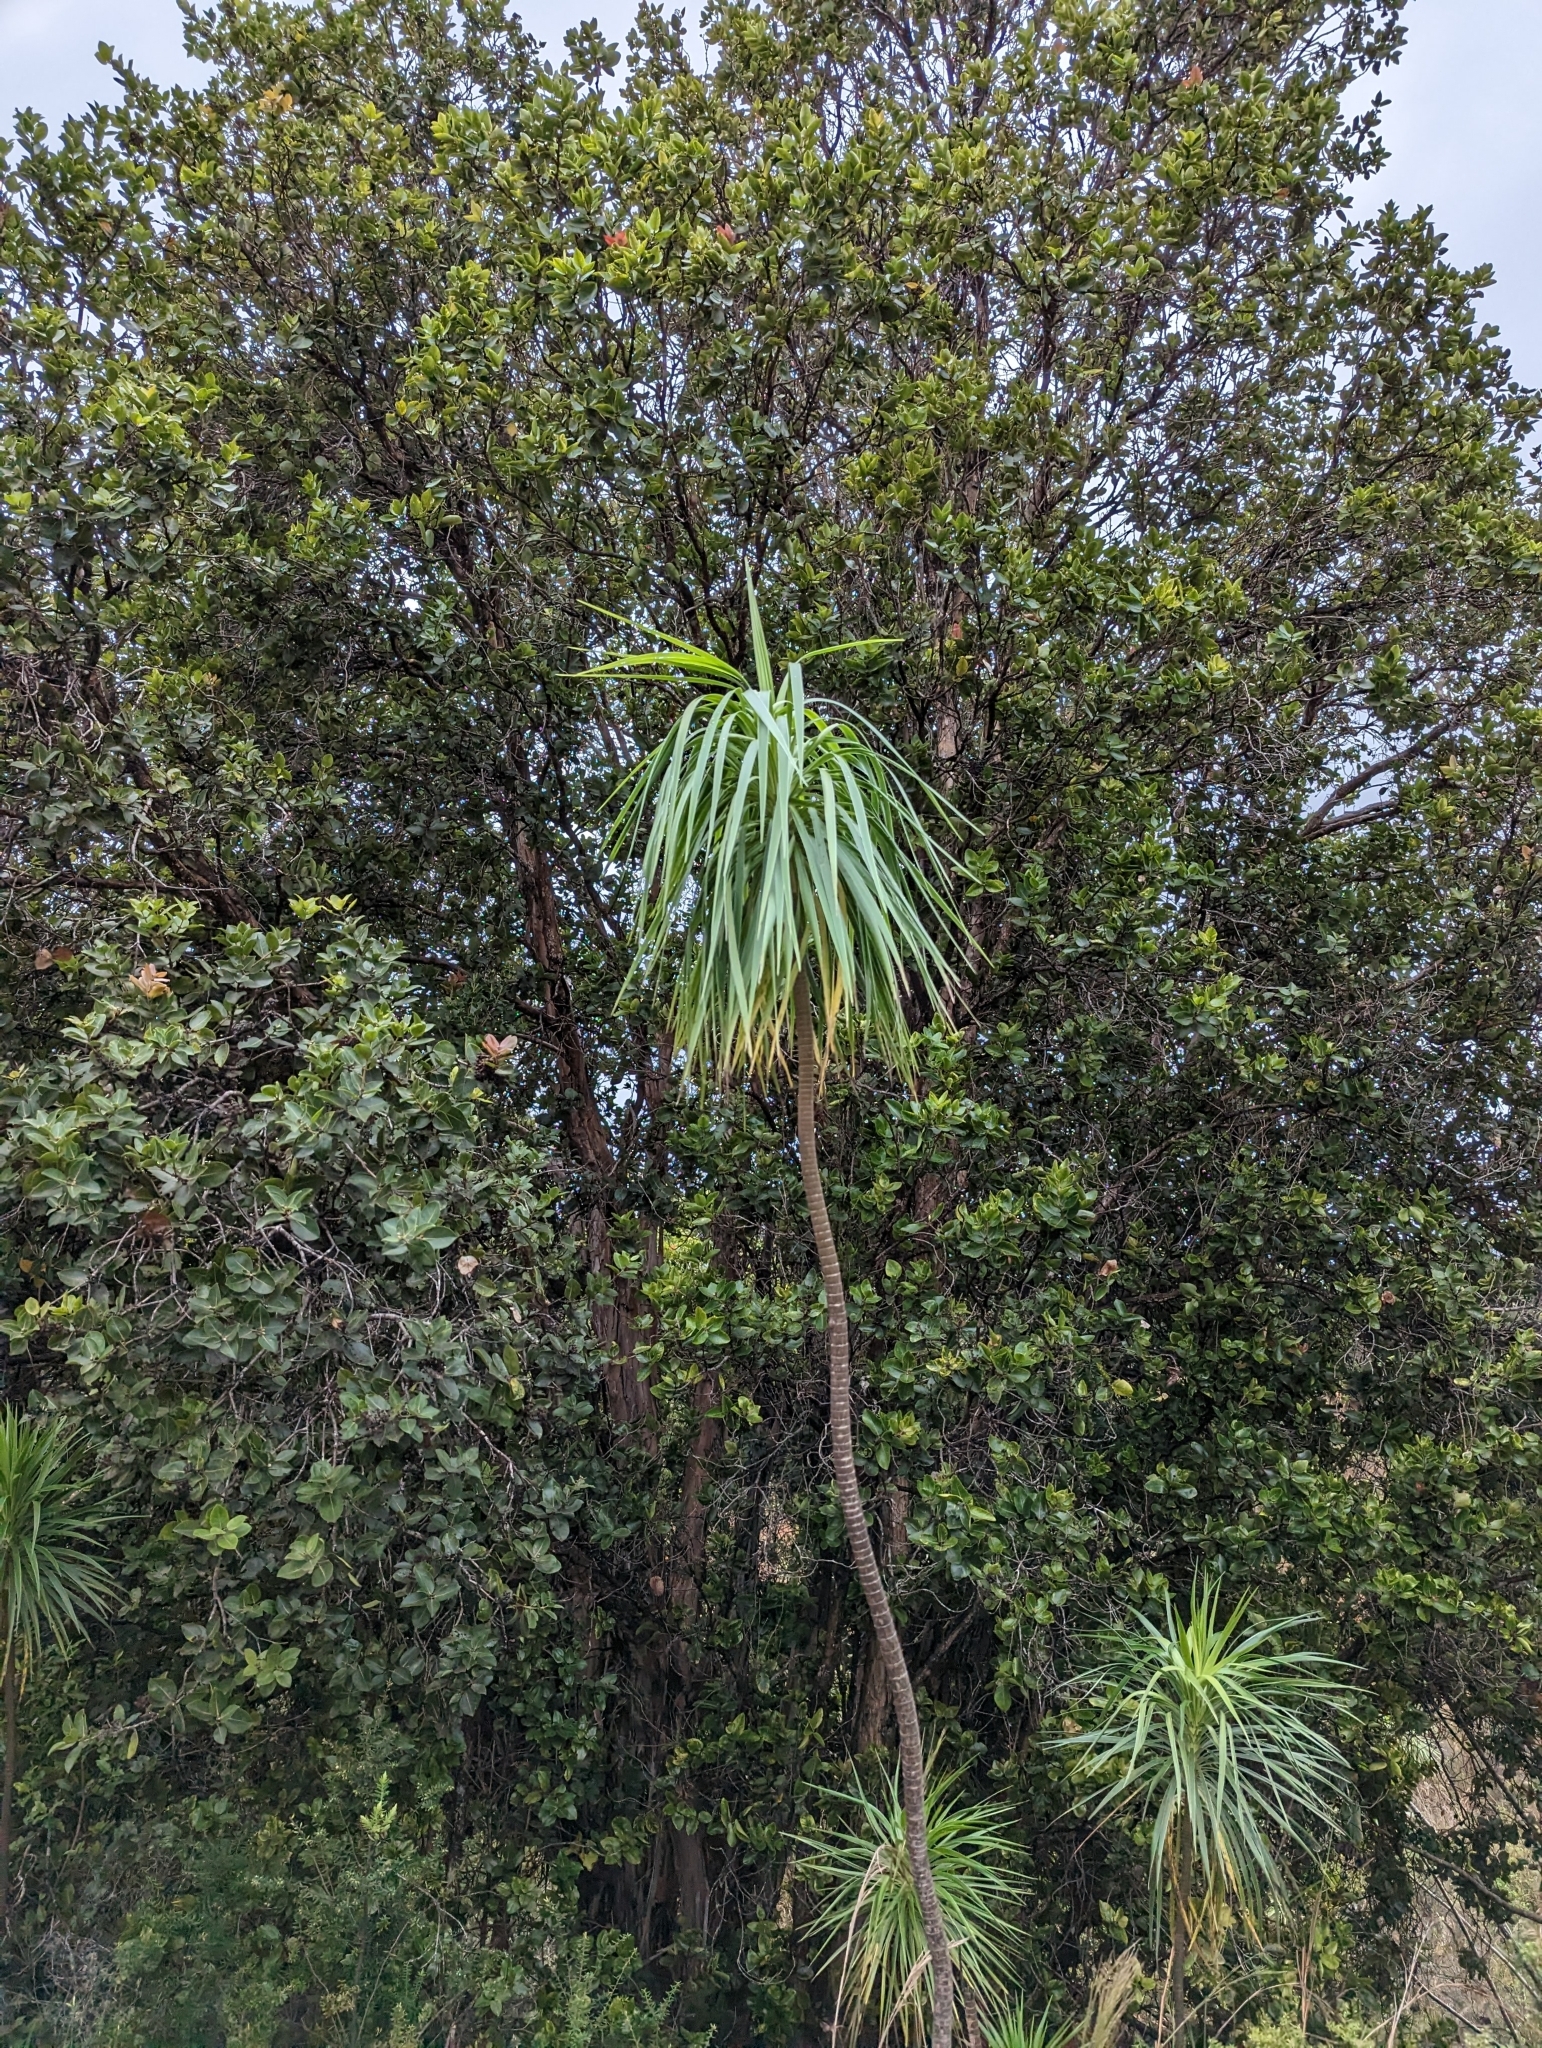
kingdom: Plantae
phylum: Tracheophyta
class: Magnoliopsida
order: Asterales
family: Asteraceae
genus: Wilkesia
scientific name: Wilkesia gymnoxiphium
